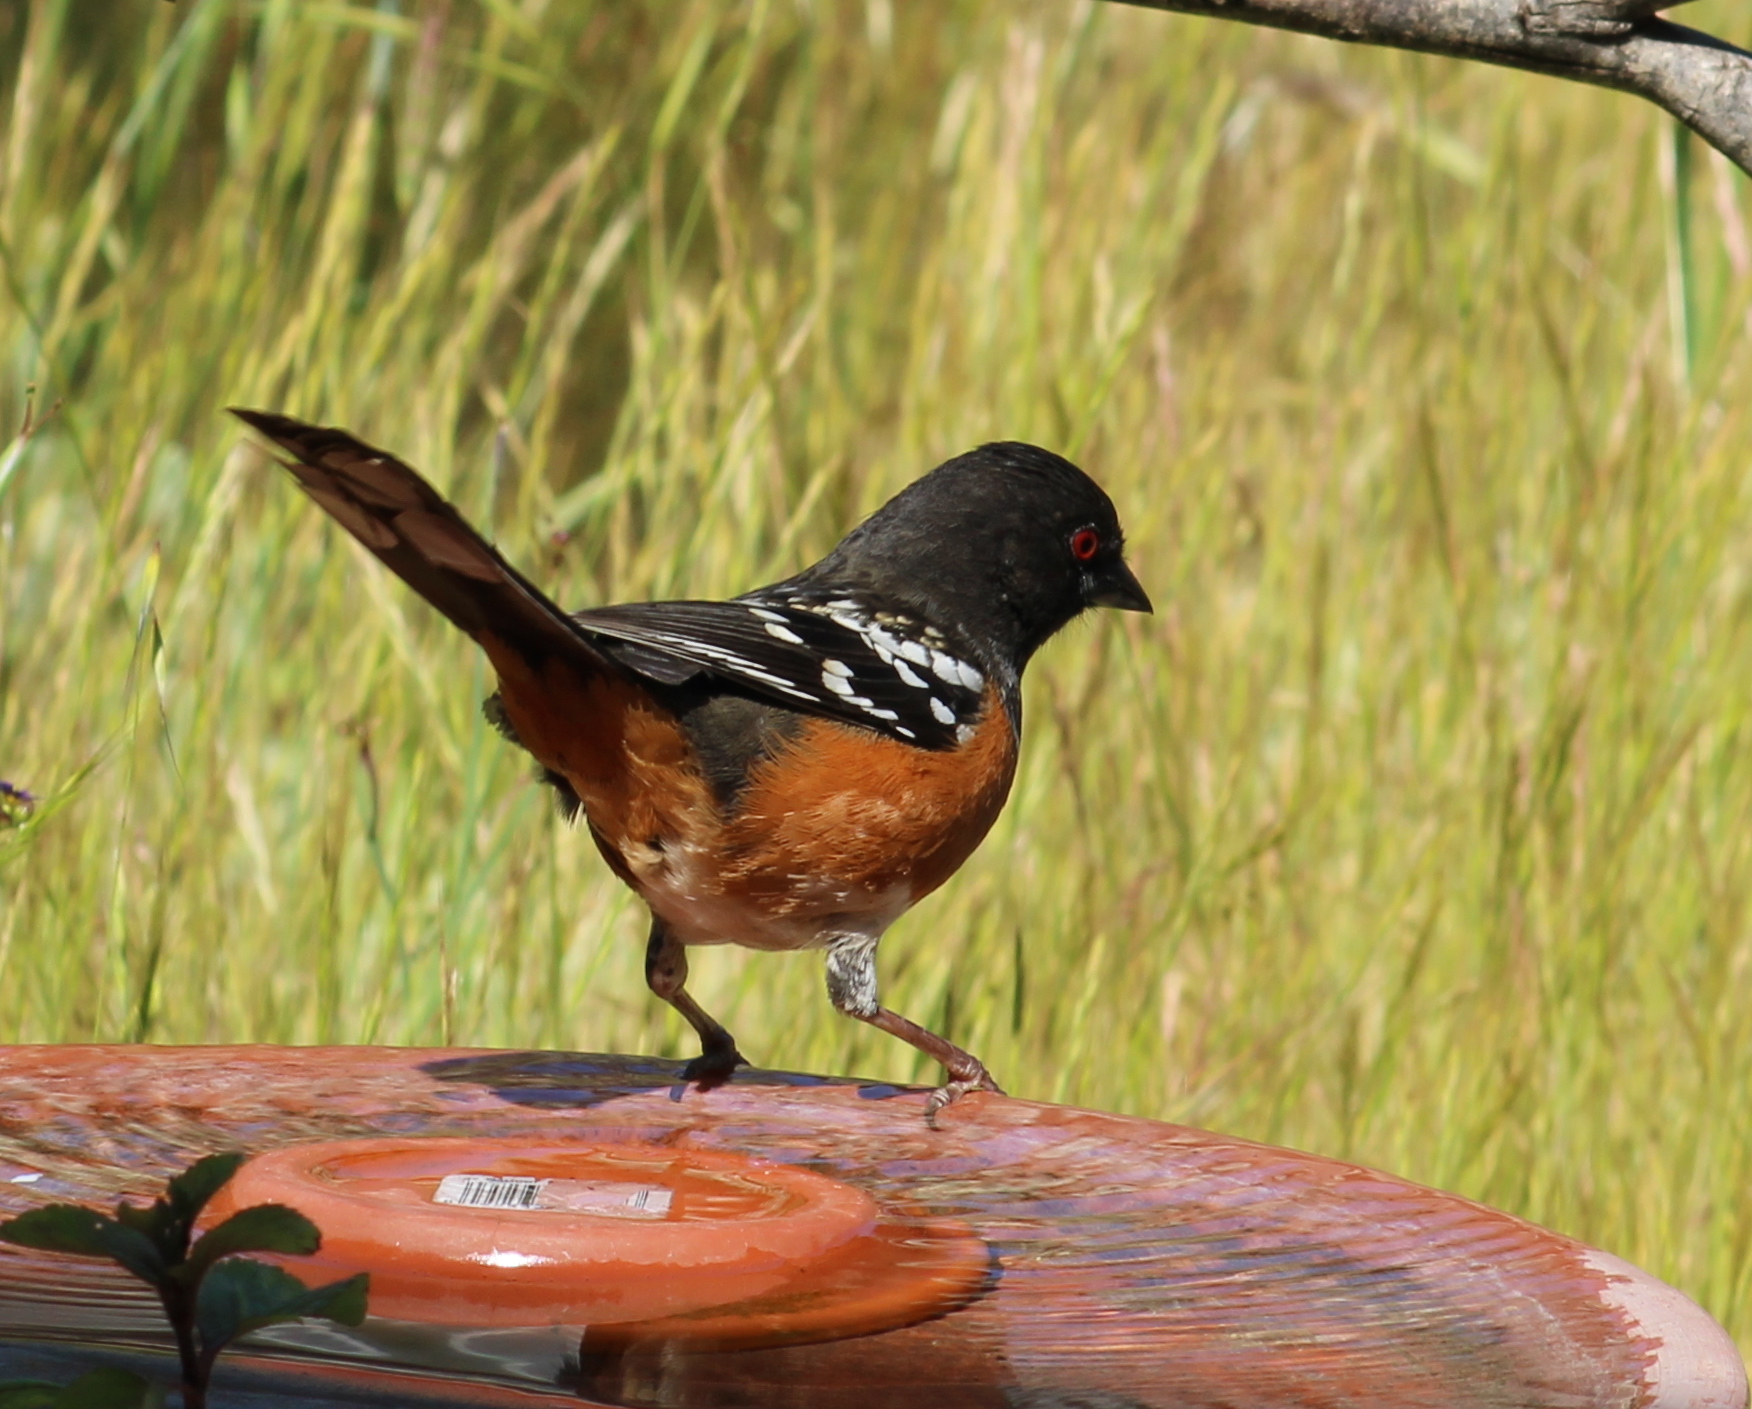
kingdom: Animalia
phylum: Chordata
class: Aves
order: Passeriformes
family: Passerellidae
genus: Pipilo
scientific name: Pipilo maculatus
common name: Spotted towhee
